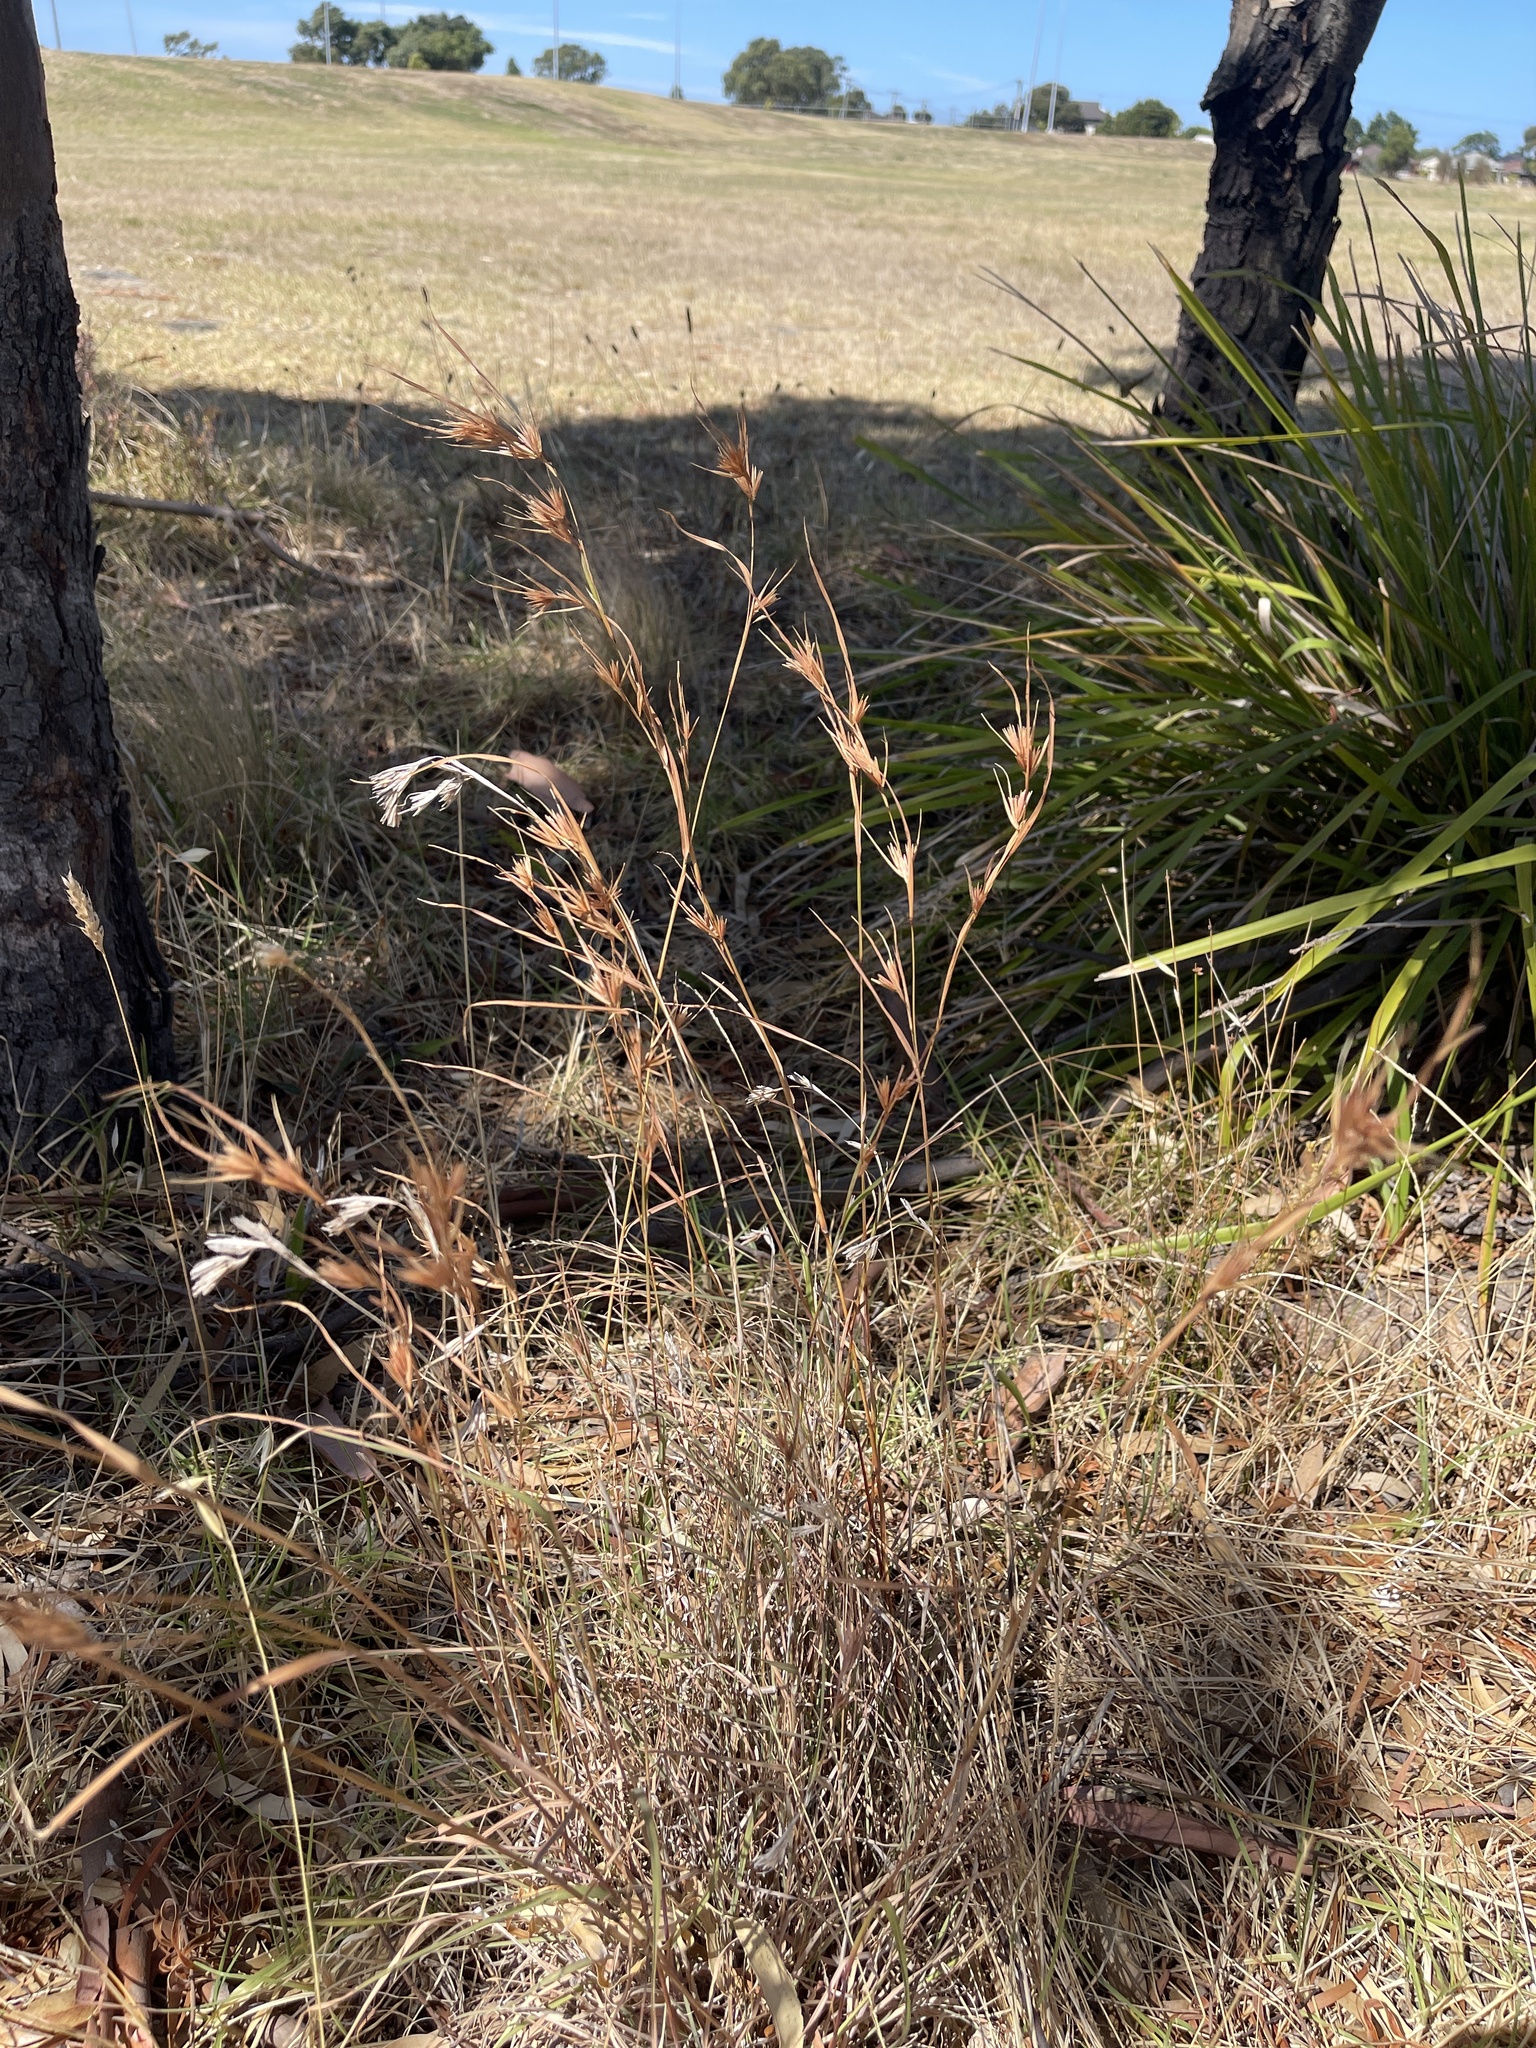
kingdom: Plantae
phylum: Tracheophyta
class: Liliopsida
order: Poales
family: Poaceae
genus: Themeda
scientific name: Themeda triandra
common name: Kangaroo grass
